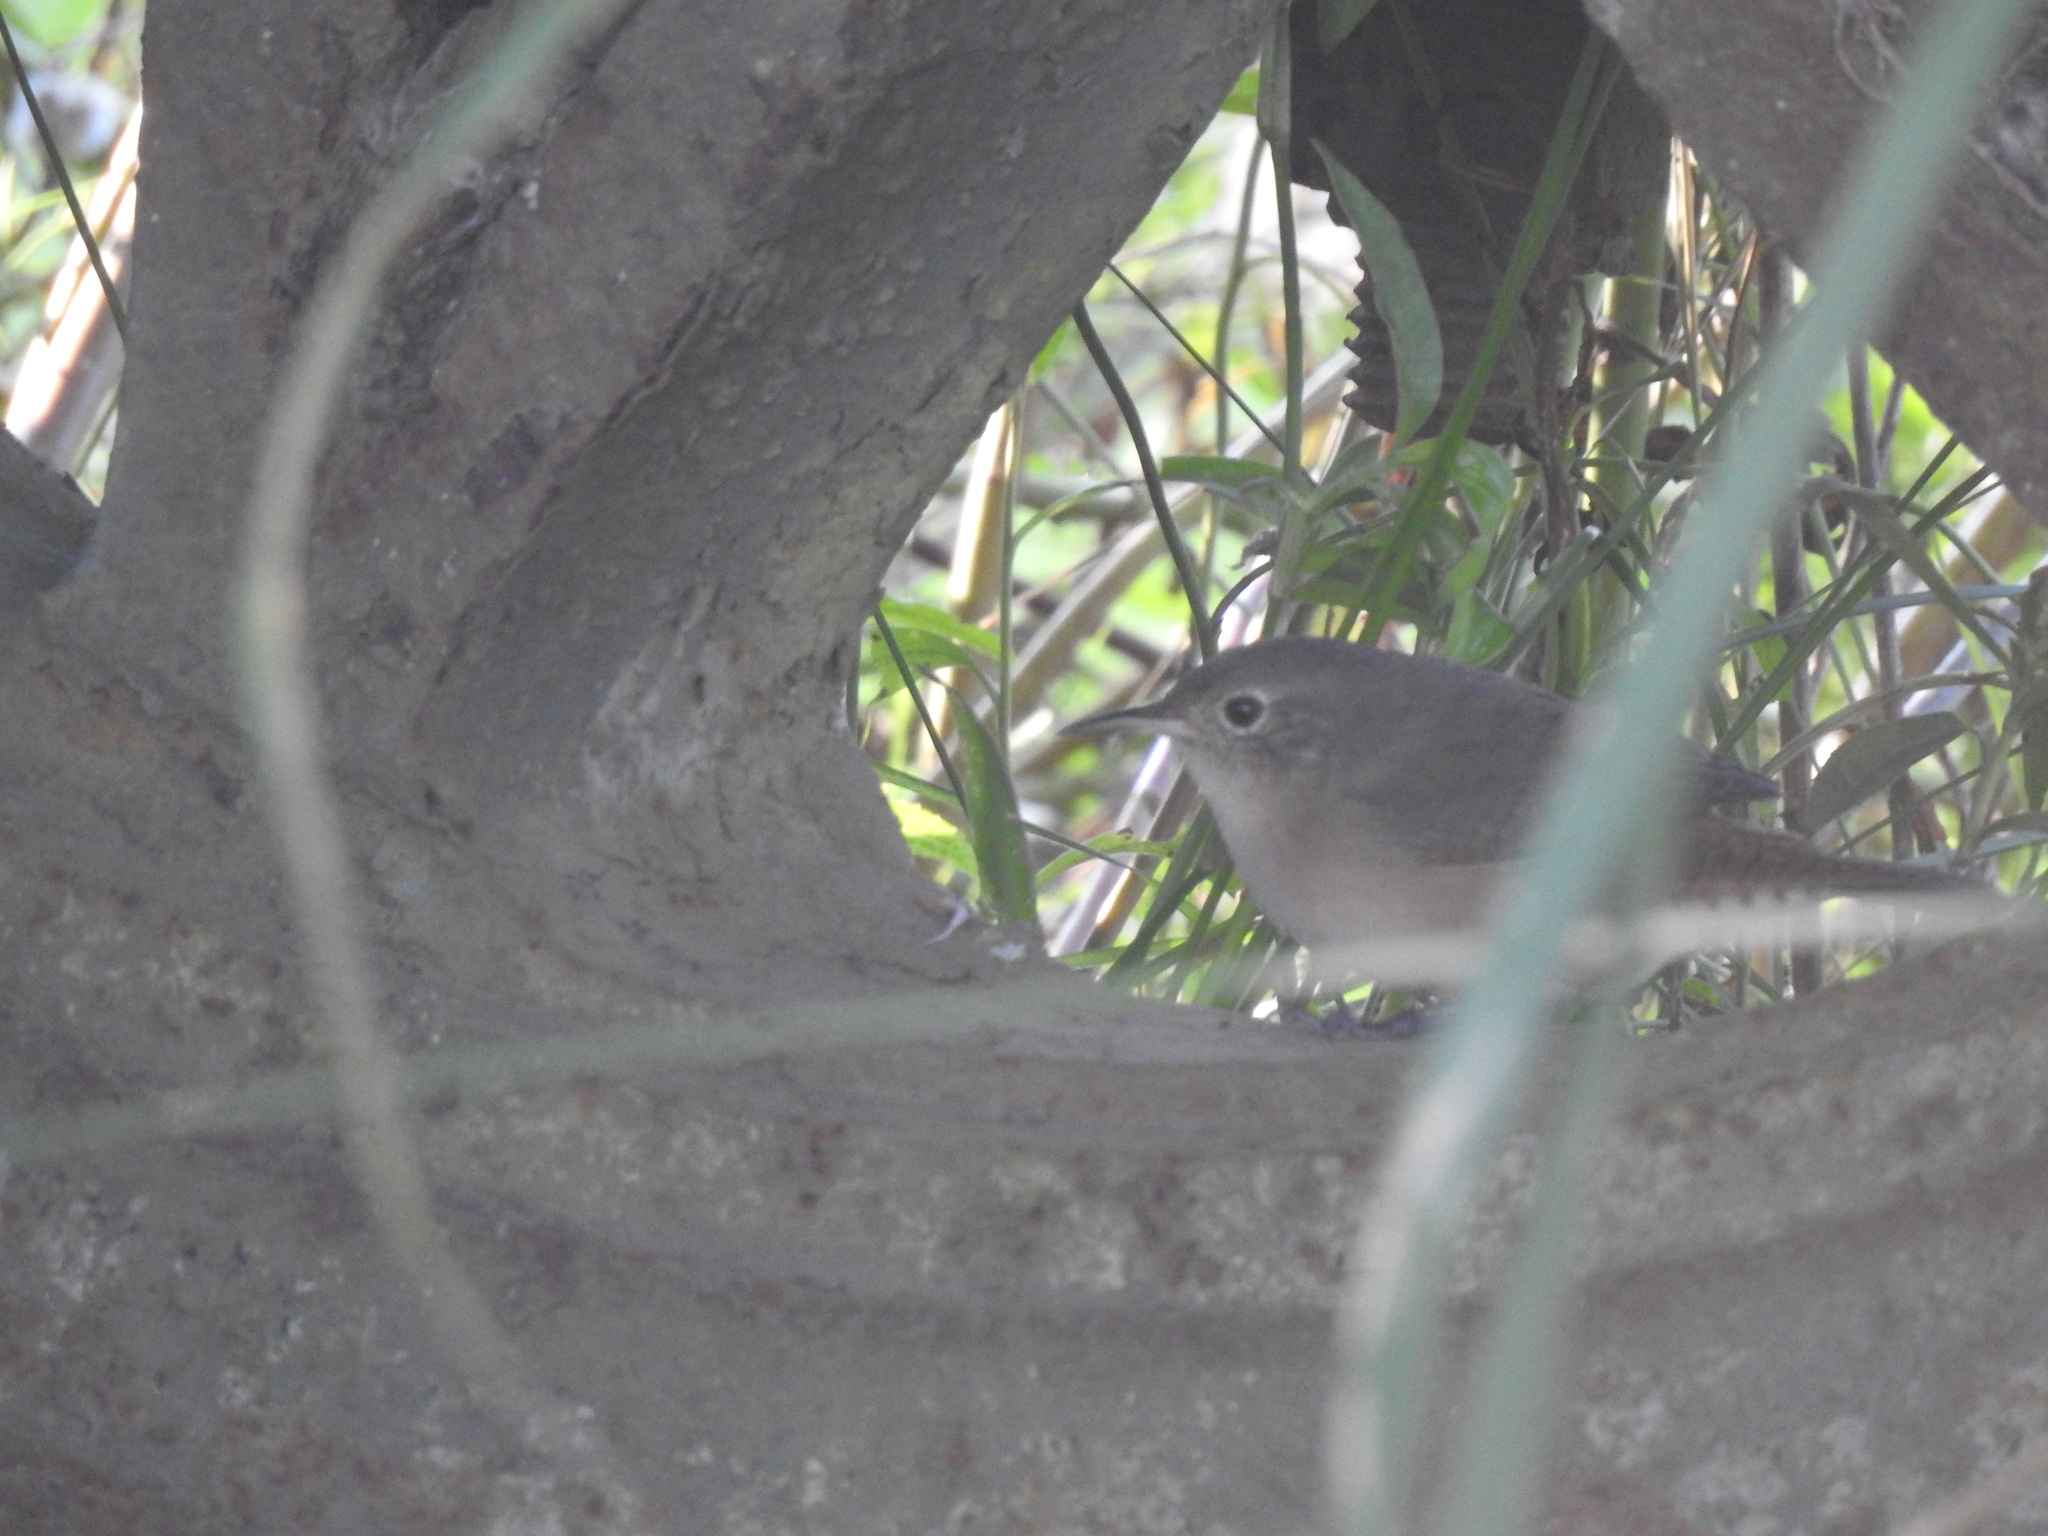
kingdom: Animalia
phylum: Chordata
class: Aves
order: Passeriformes
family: Troglodytidae
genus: Troglodytes
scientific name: Troglodytes aedon
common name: House wren
